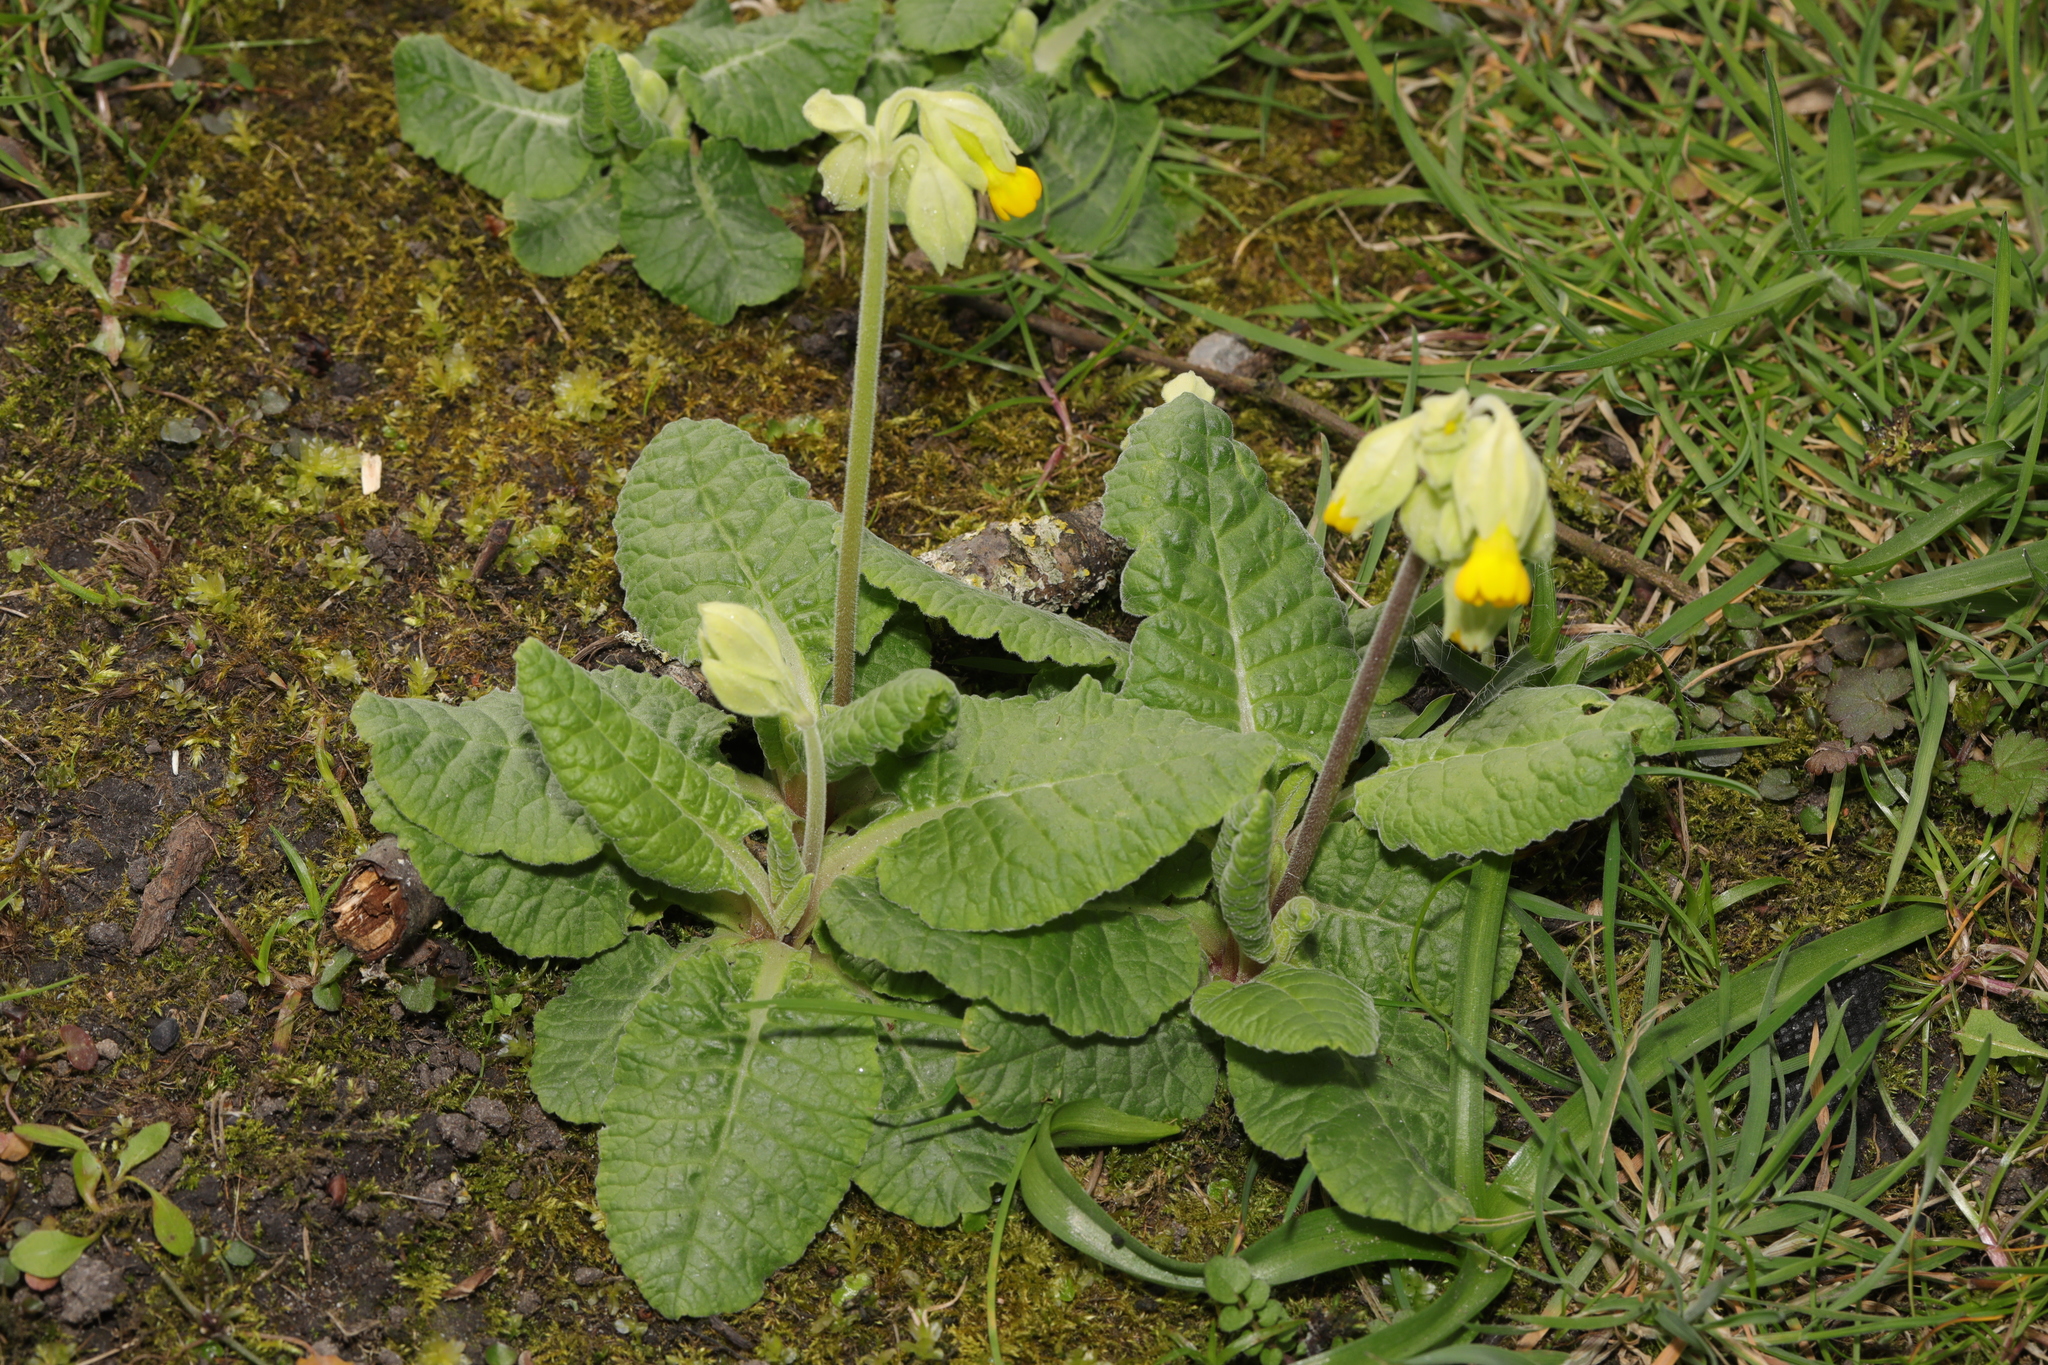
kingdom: Plantae
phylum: Tracheophyta
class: Magnoliopsida
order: Ericales
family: Primulaceae
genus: Primula
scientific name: Primula veris
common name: Cowslip
